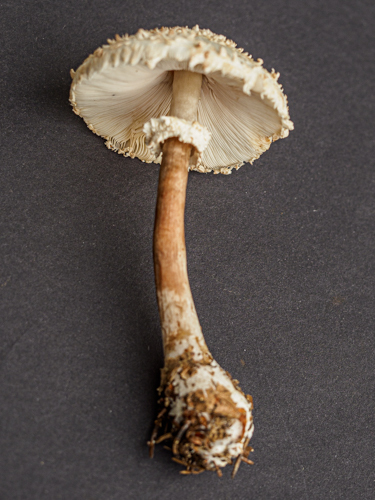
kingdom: Fungi
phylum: Basidiomycota
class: Agaricomycetes
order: Agaricales
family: Agaricaceae
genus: Leucoagaricus
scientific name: Leucoagaricus nympharum
